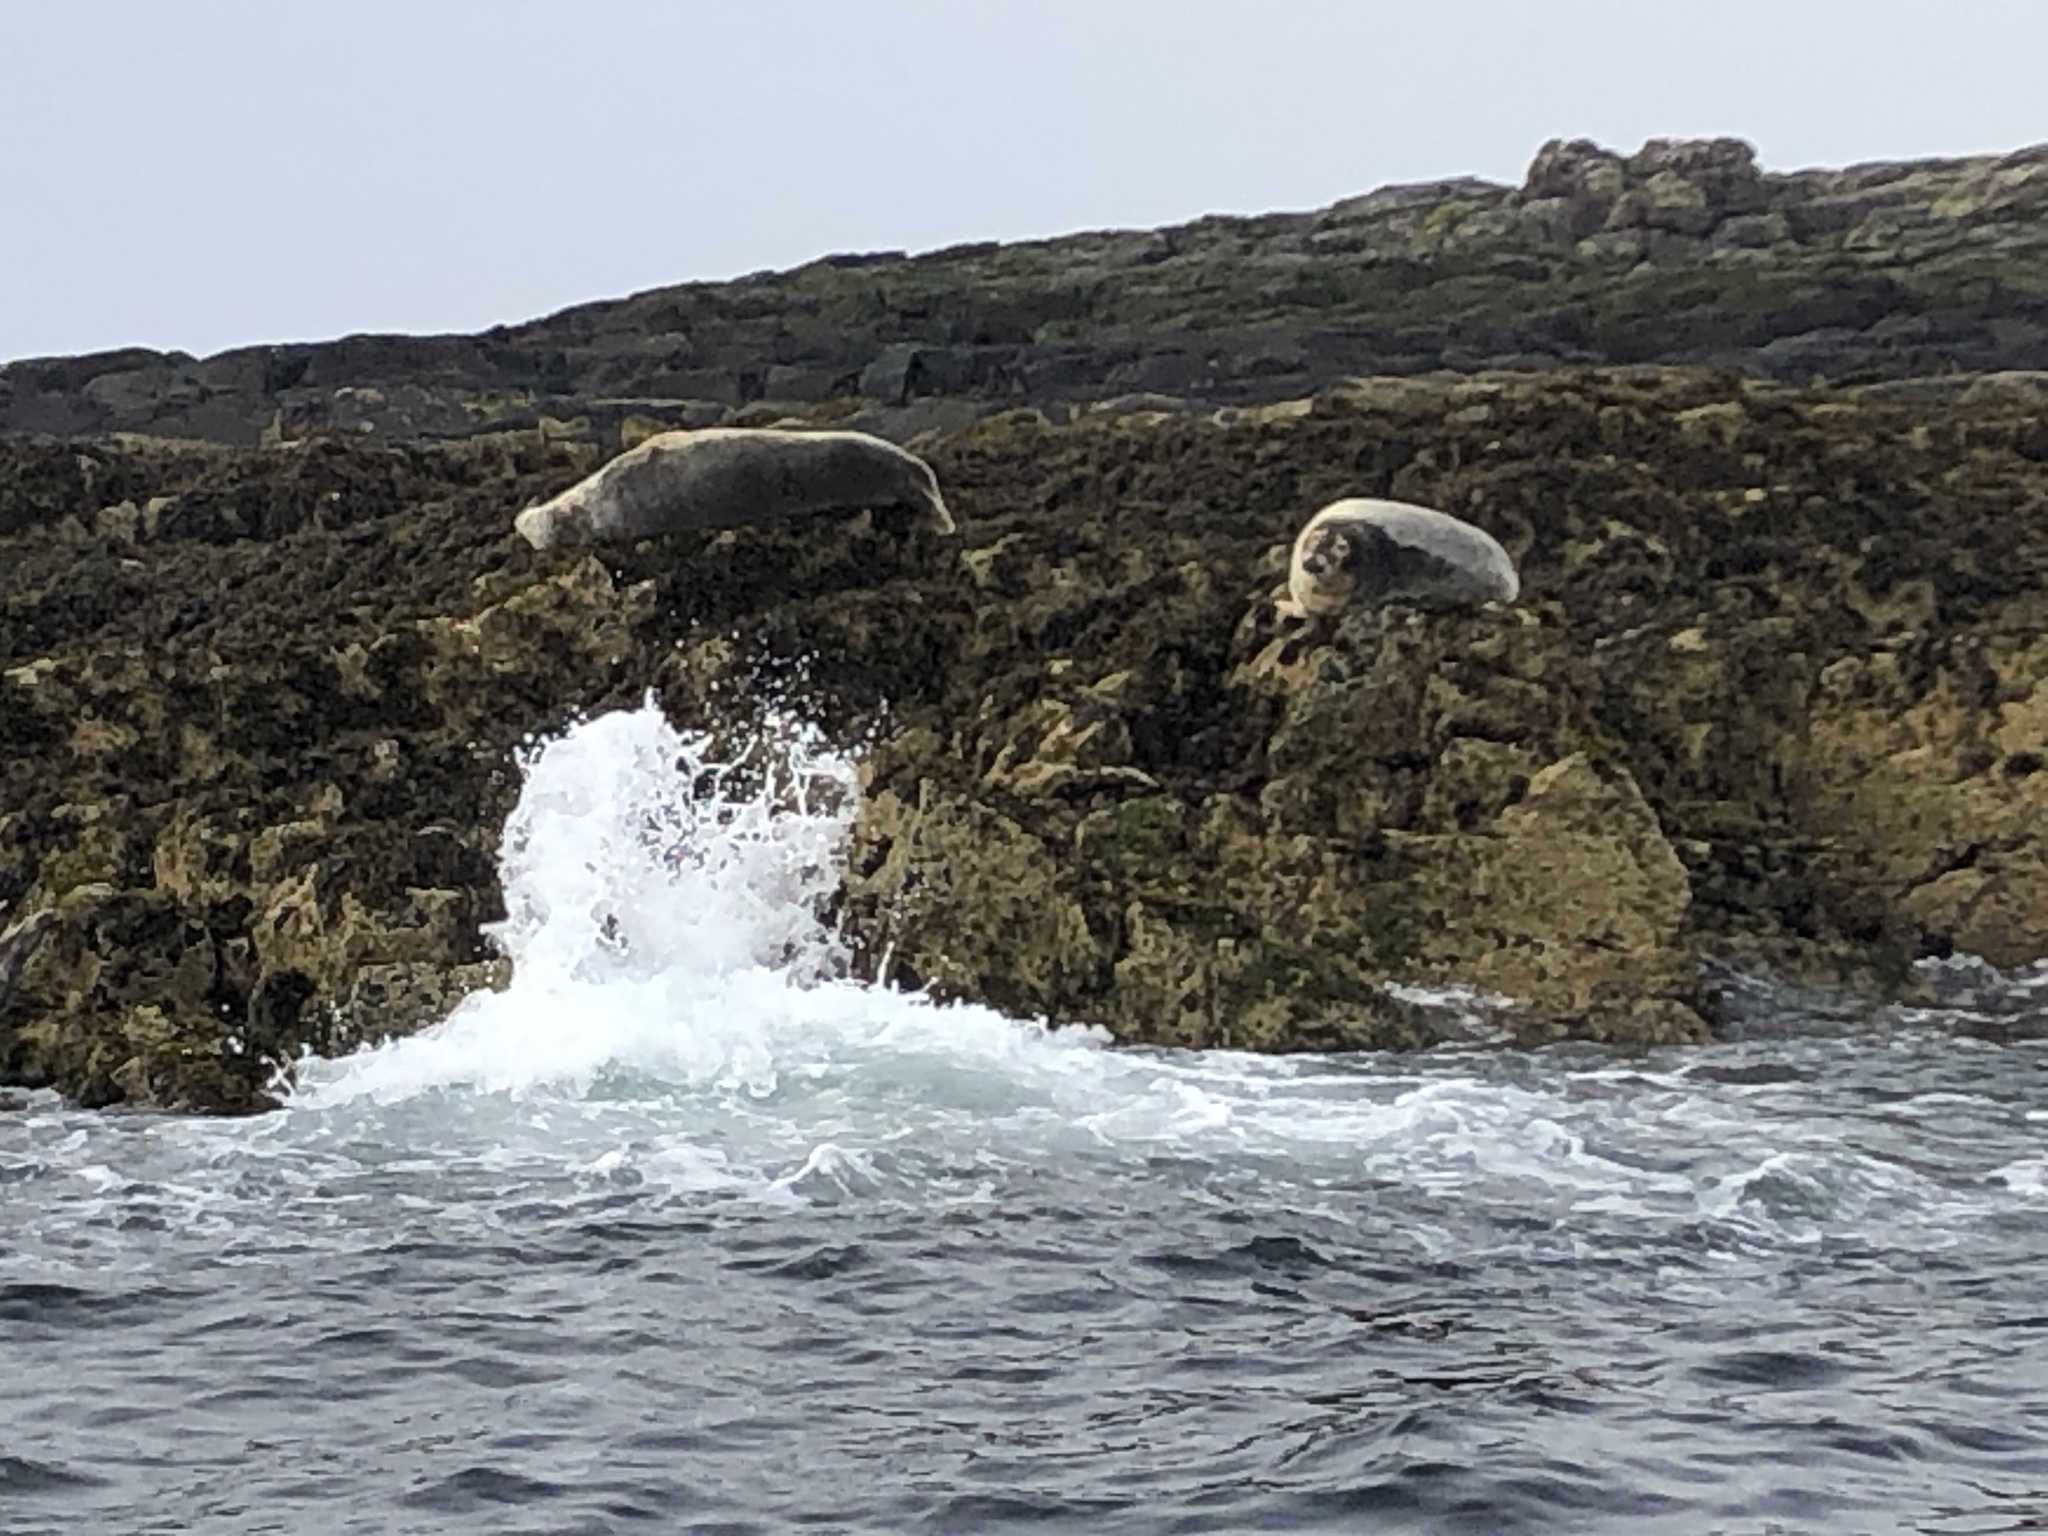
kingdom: Animalia
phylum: Chordata
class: Mammalia
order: Carnivora
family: Phocidae
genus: Halichoerus
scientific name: Halichoerus grypus
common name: Grey seal
